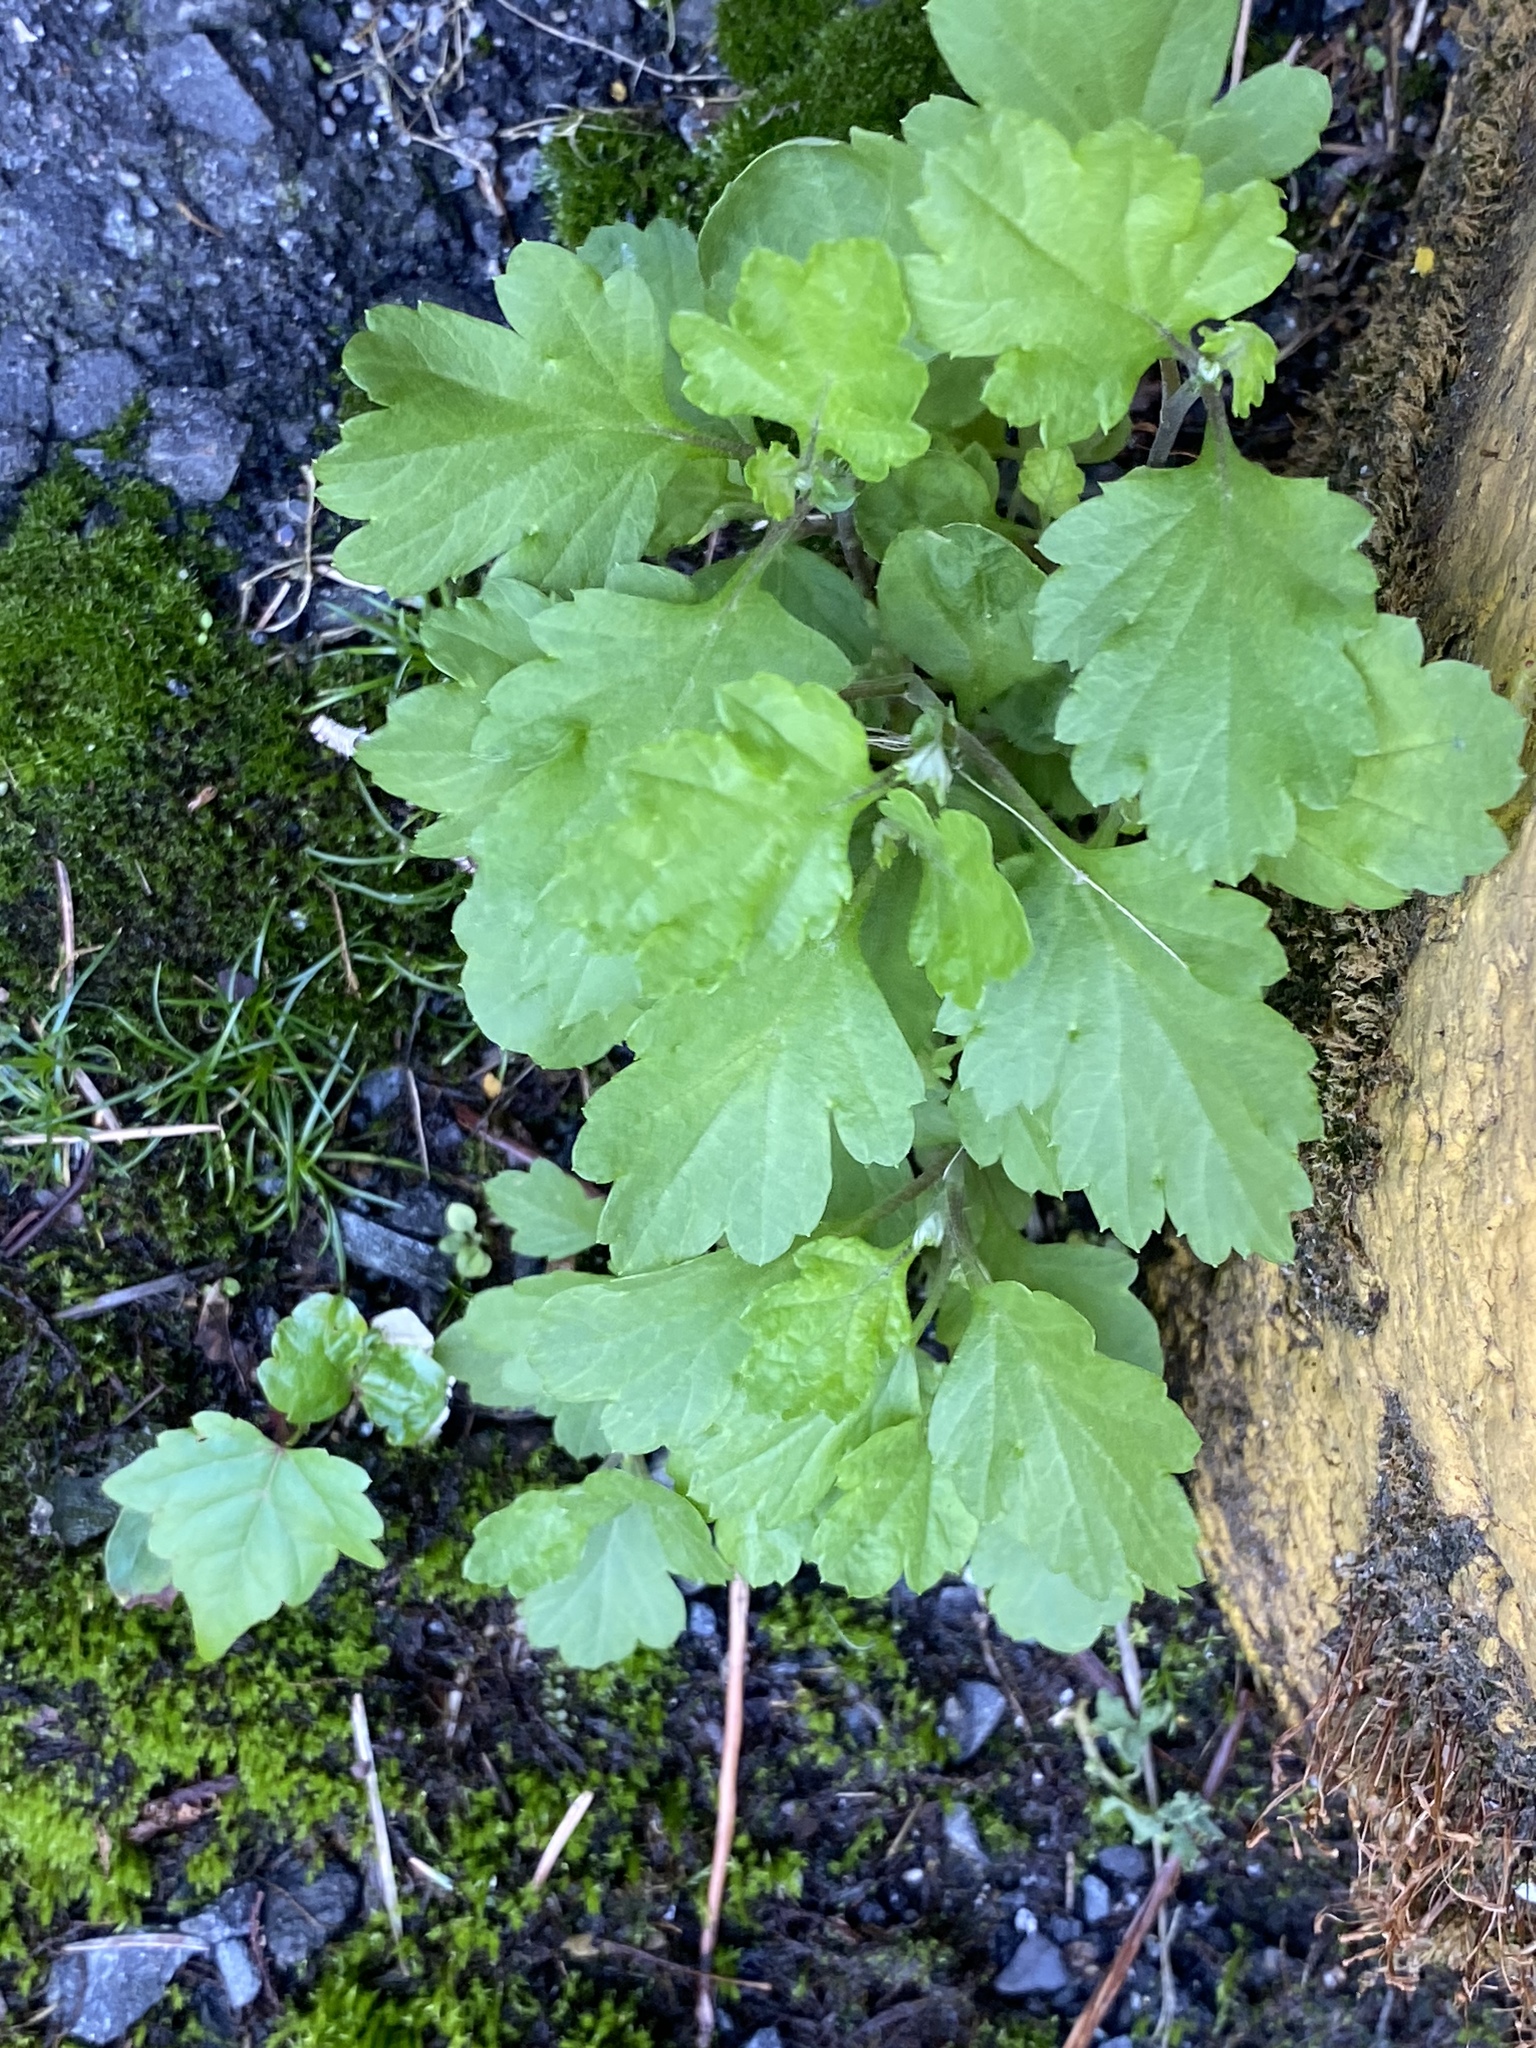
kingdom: Plantae
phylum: Tracheophyta
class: Magnoliopsida
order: Asterales
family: Asteraceae
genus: Artemisia
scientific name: Artemisia vulgaris
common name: Mugwort
